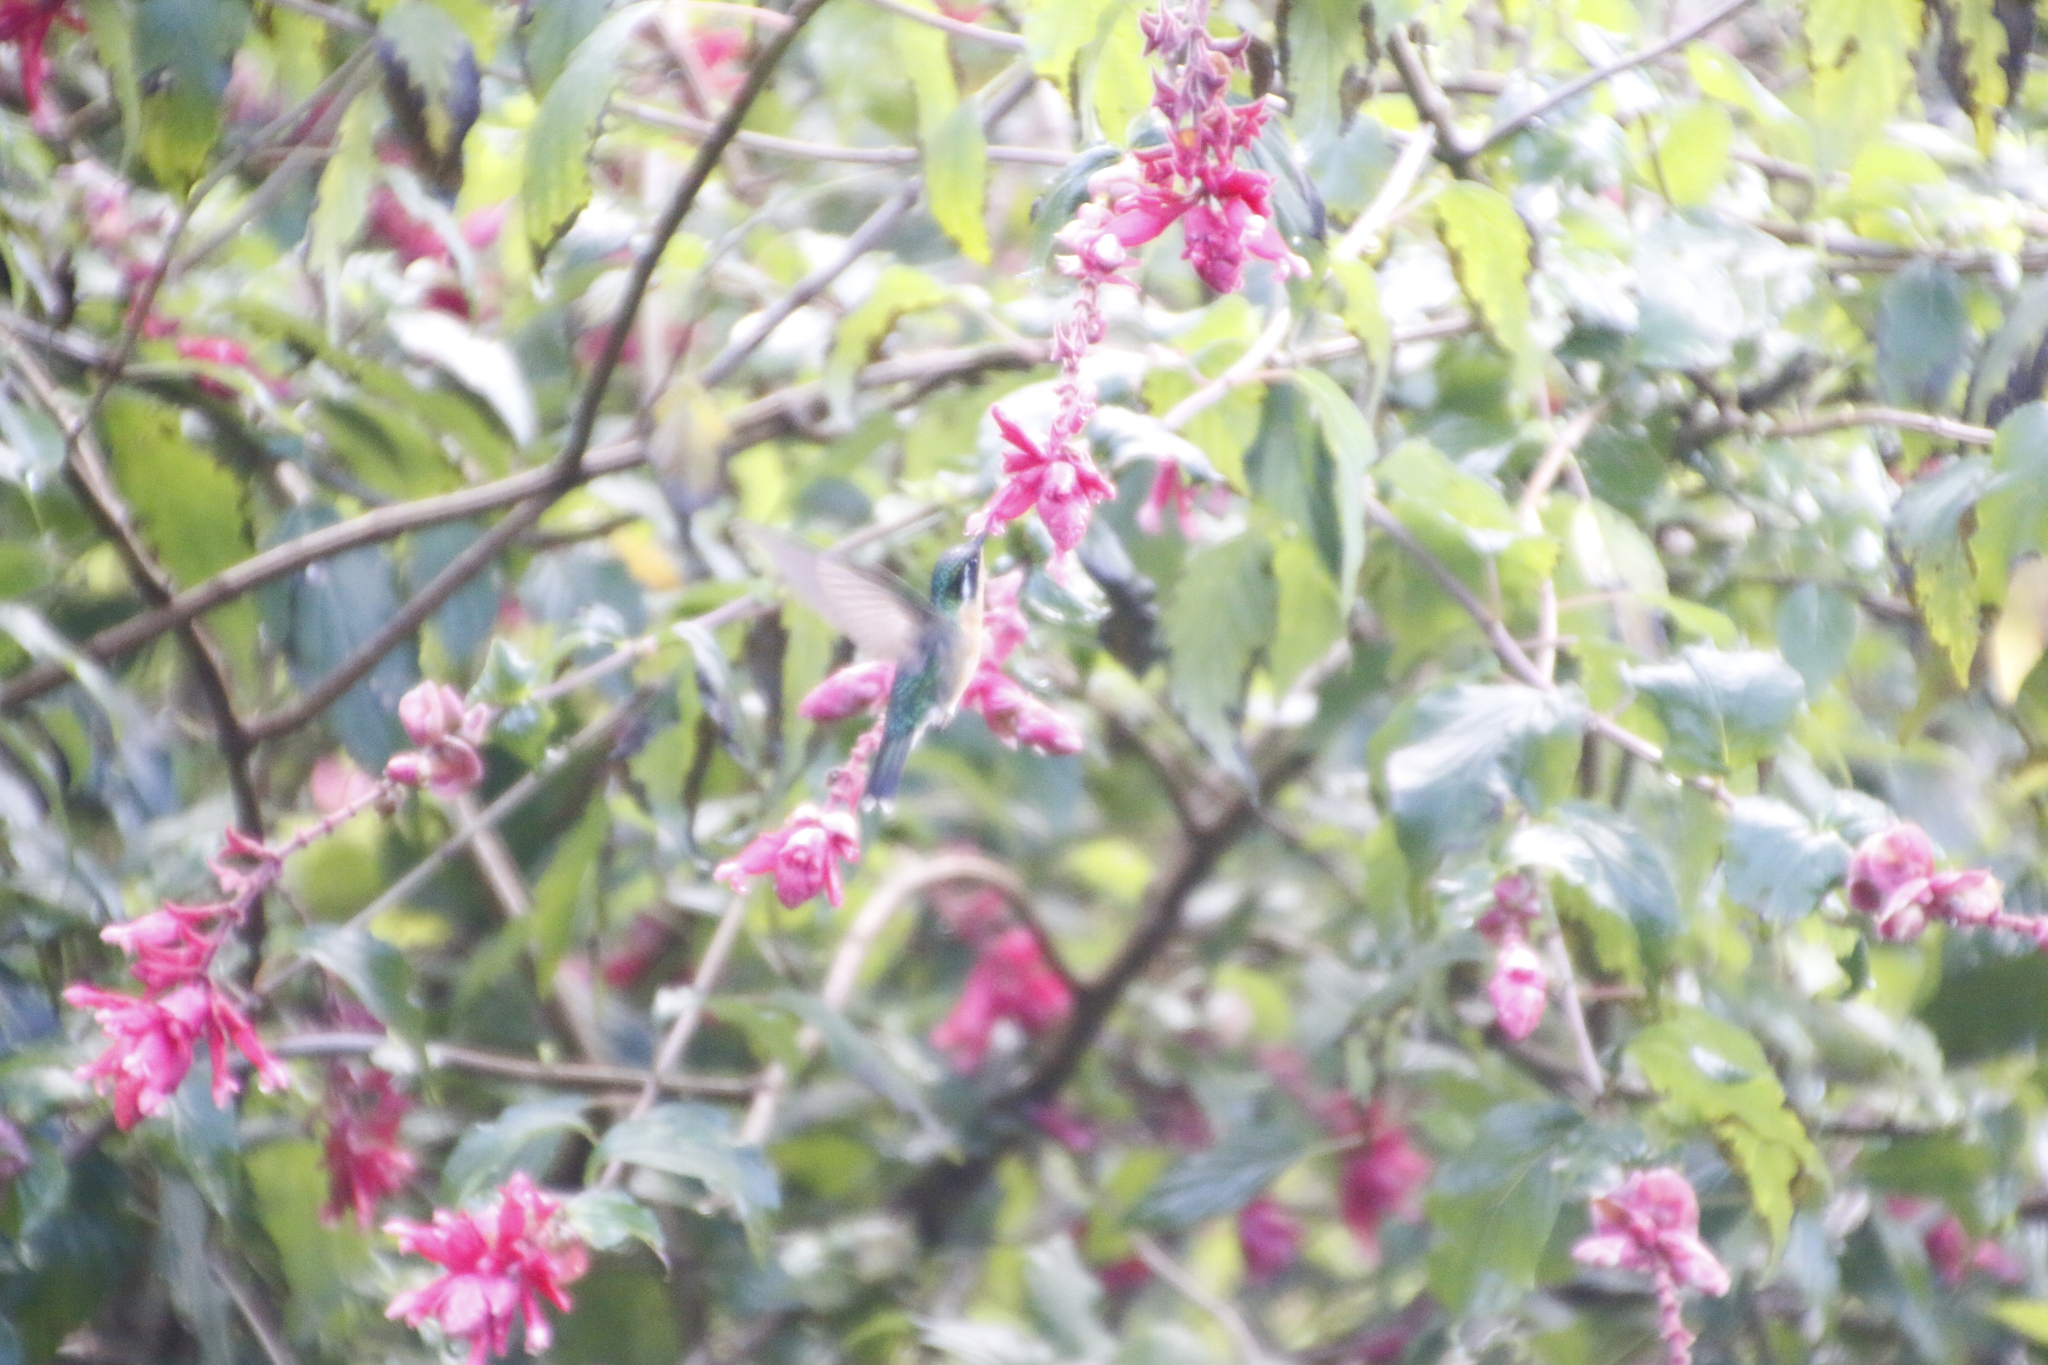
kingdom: Animalia
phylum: Chordata
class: Aves
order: Apodiformes
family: Trochilidae
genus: Lampornis
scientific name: Lampornis calolaemus
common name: Purple-throated mountain-gem
